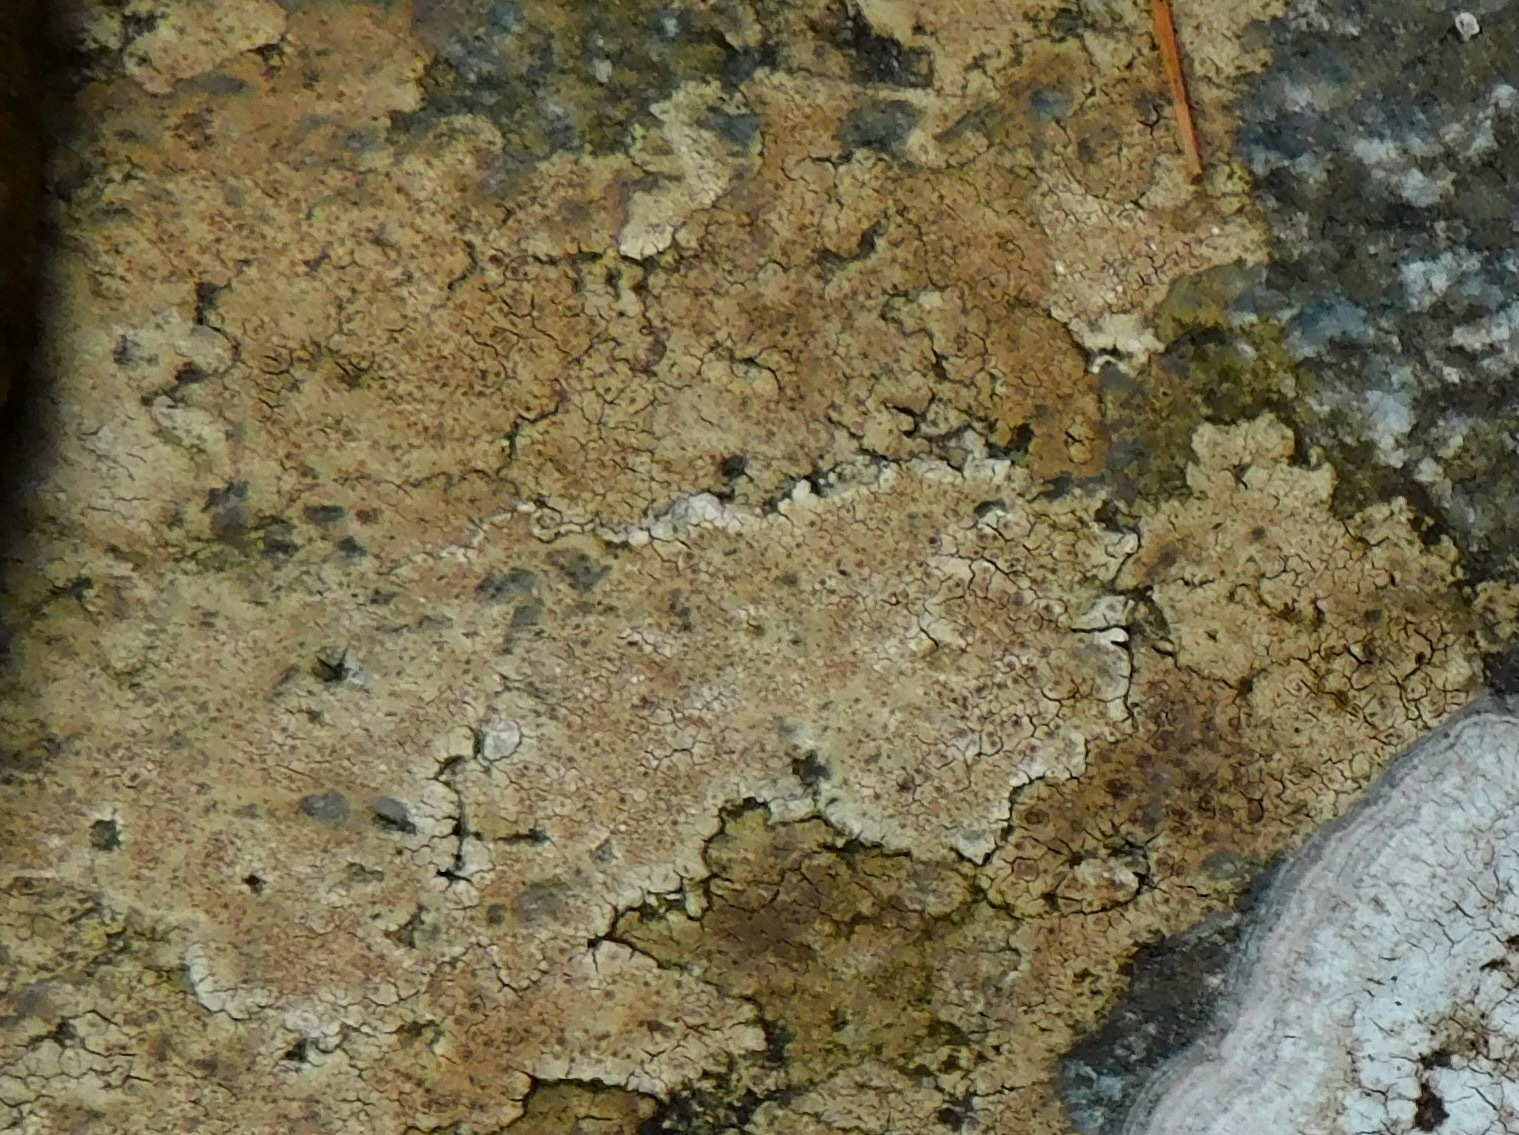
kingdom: Fungi
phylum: Ascomycota
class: Lecanoromycetes
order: Hymeneliales
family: Hymeneliaceae
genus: Ionaspis
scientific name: Ionaspis lacustris
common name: Rusty brook lichen
